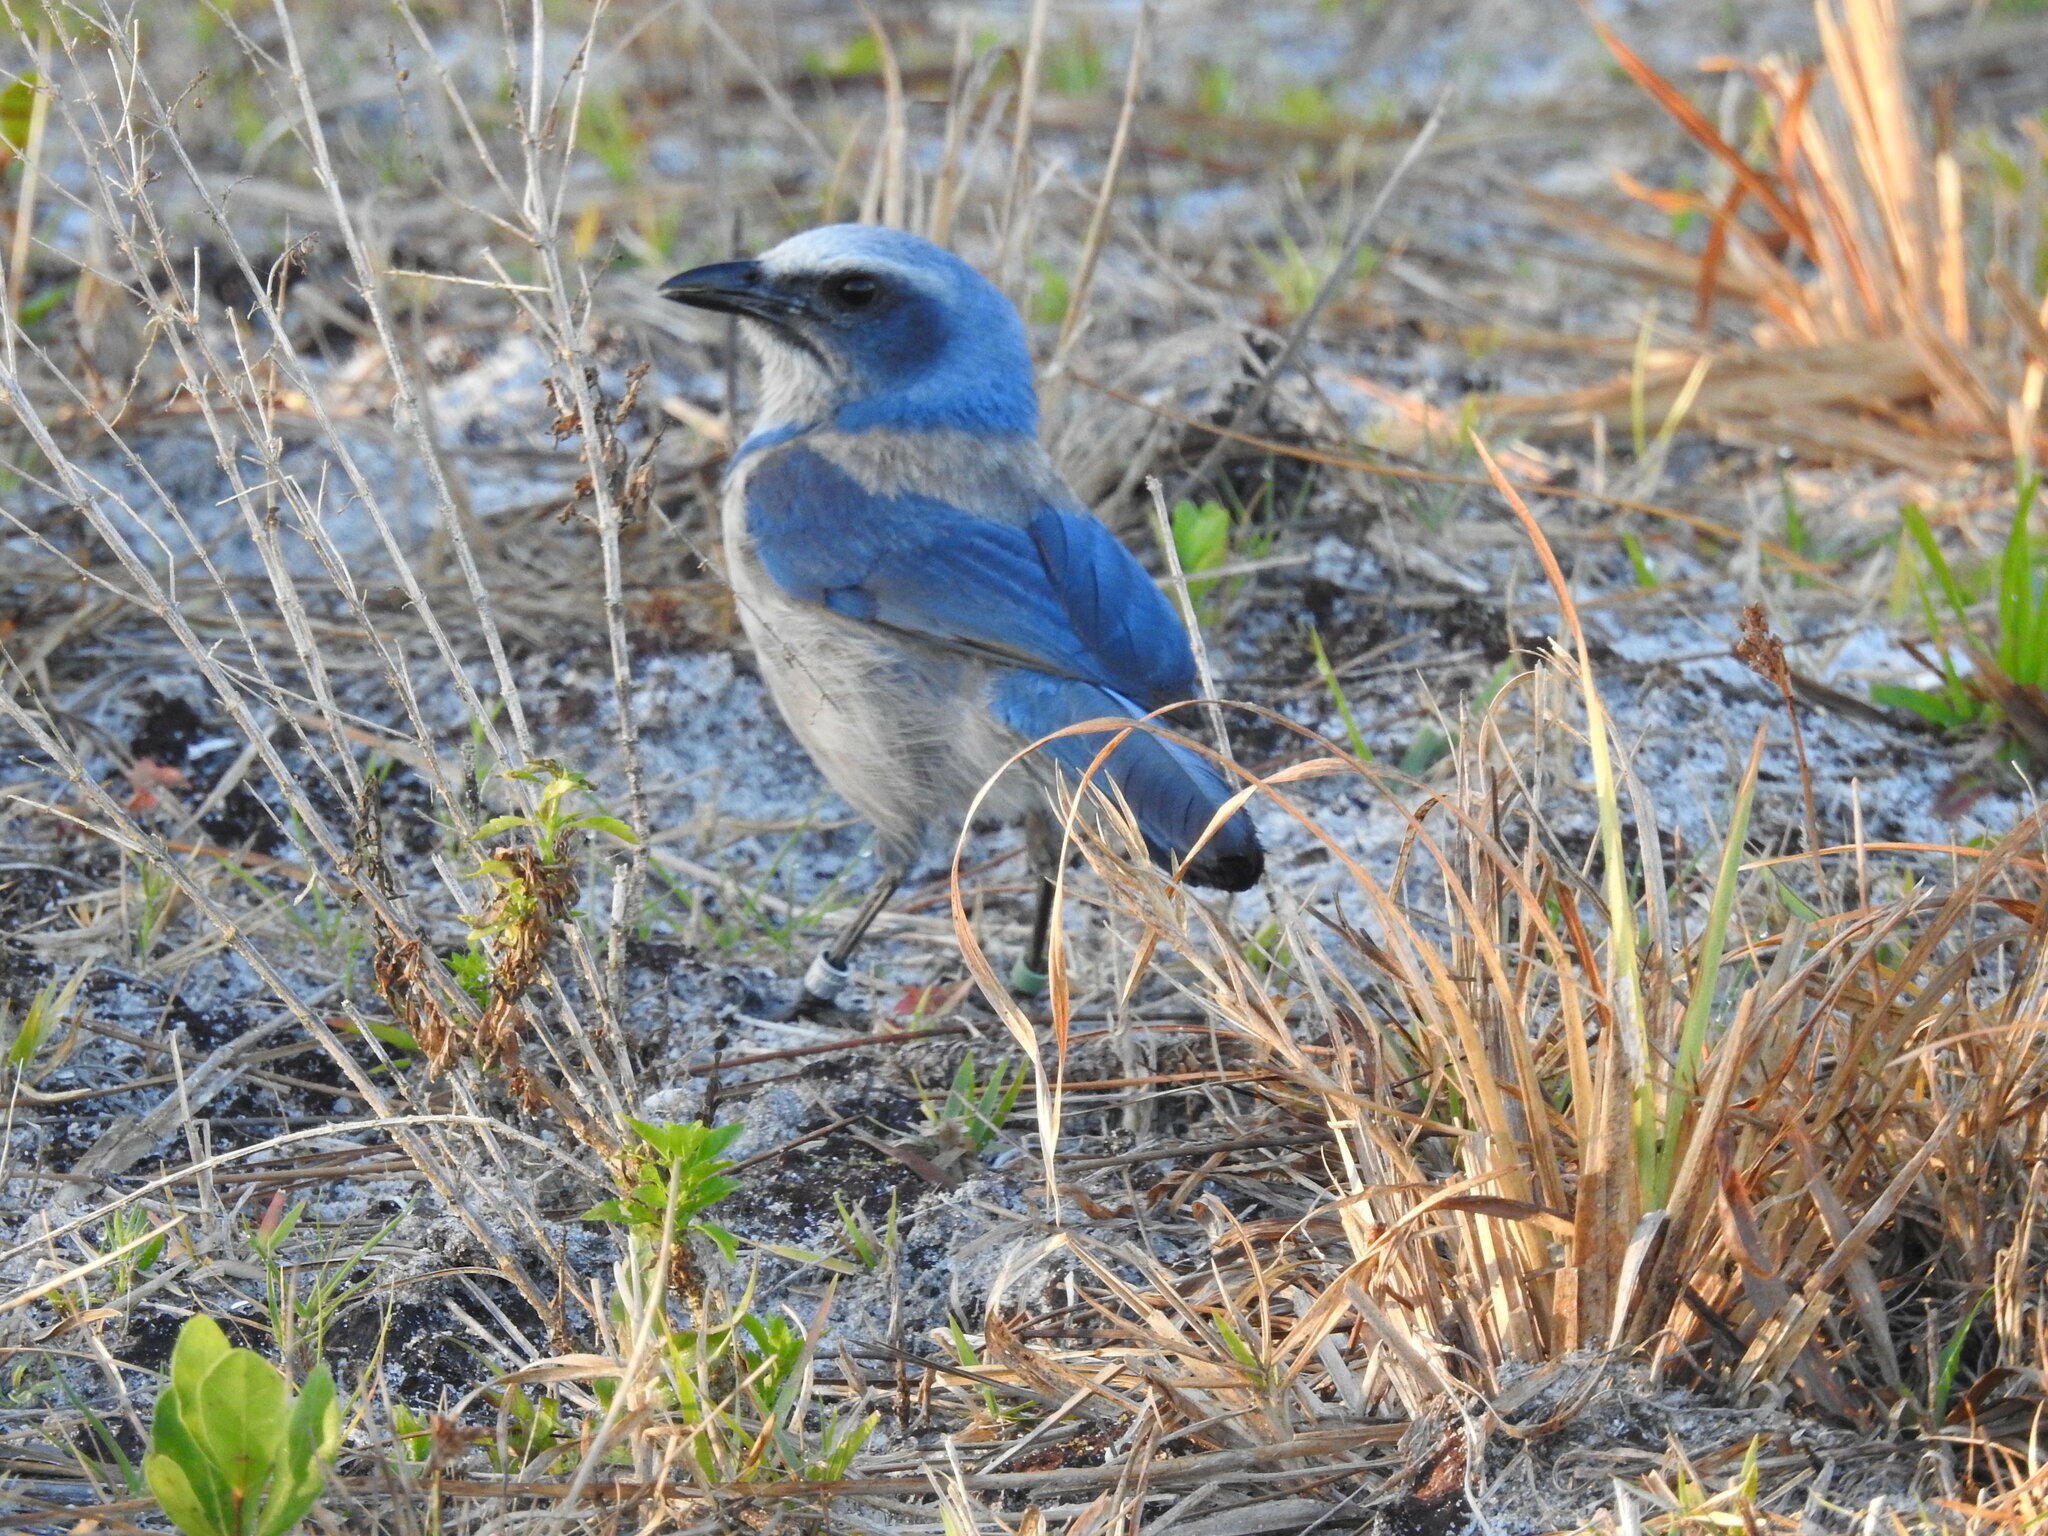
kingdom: Animalia
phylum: Chordata
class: Aves
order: Passeriformes
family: Corvidae
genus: Aphelocoma
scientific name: Aphelocoma coerulescens
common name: Florida scrub jay
